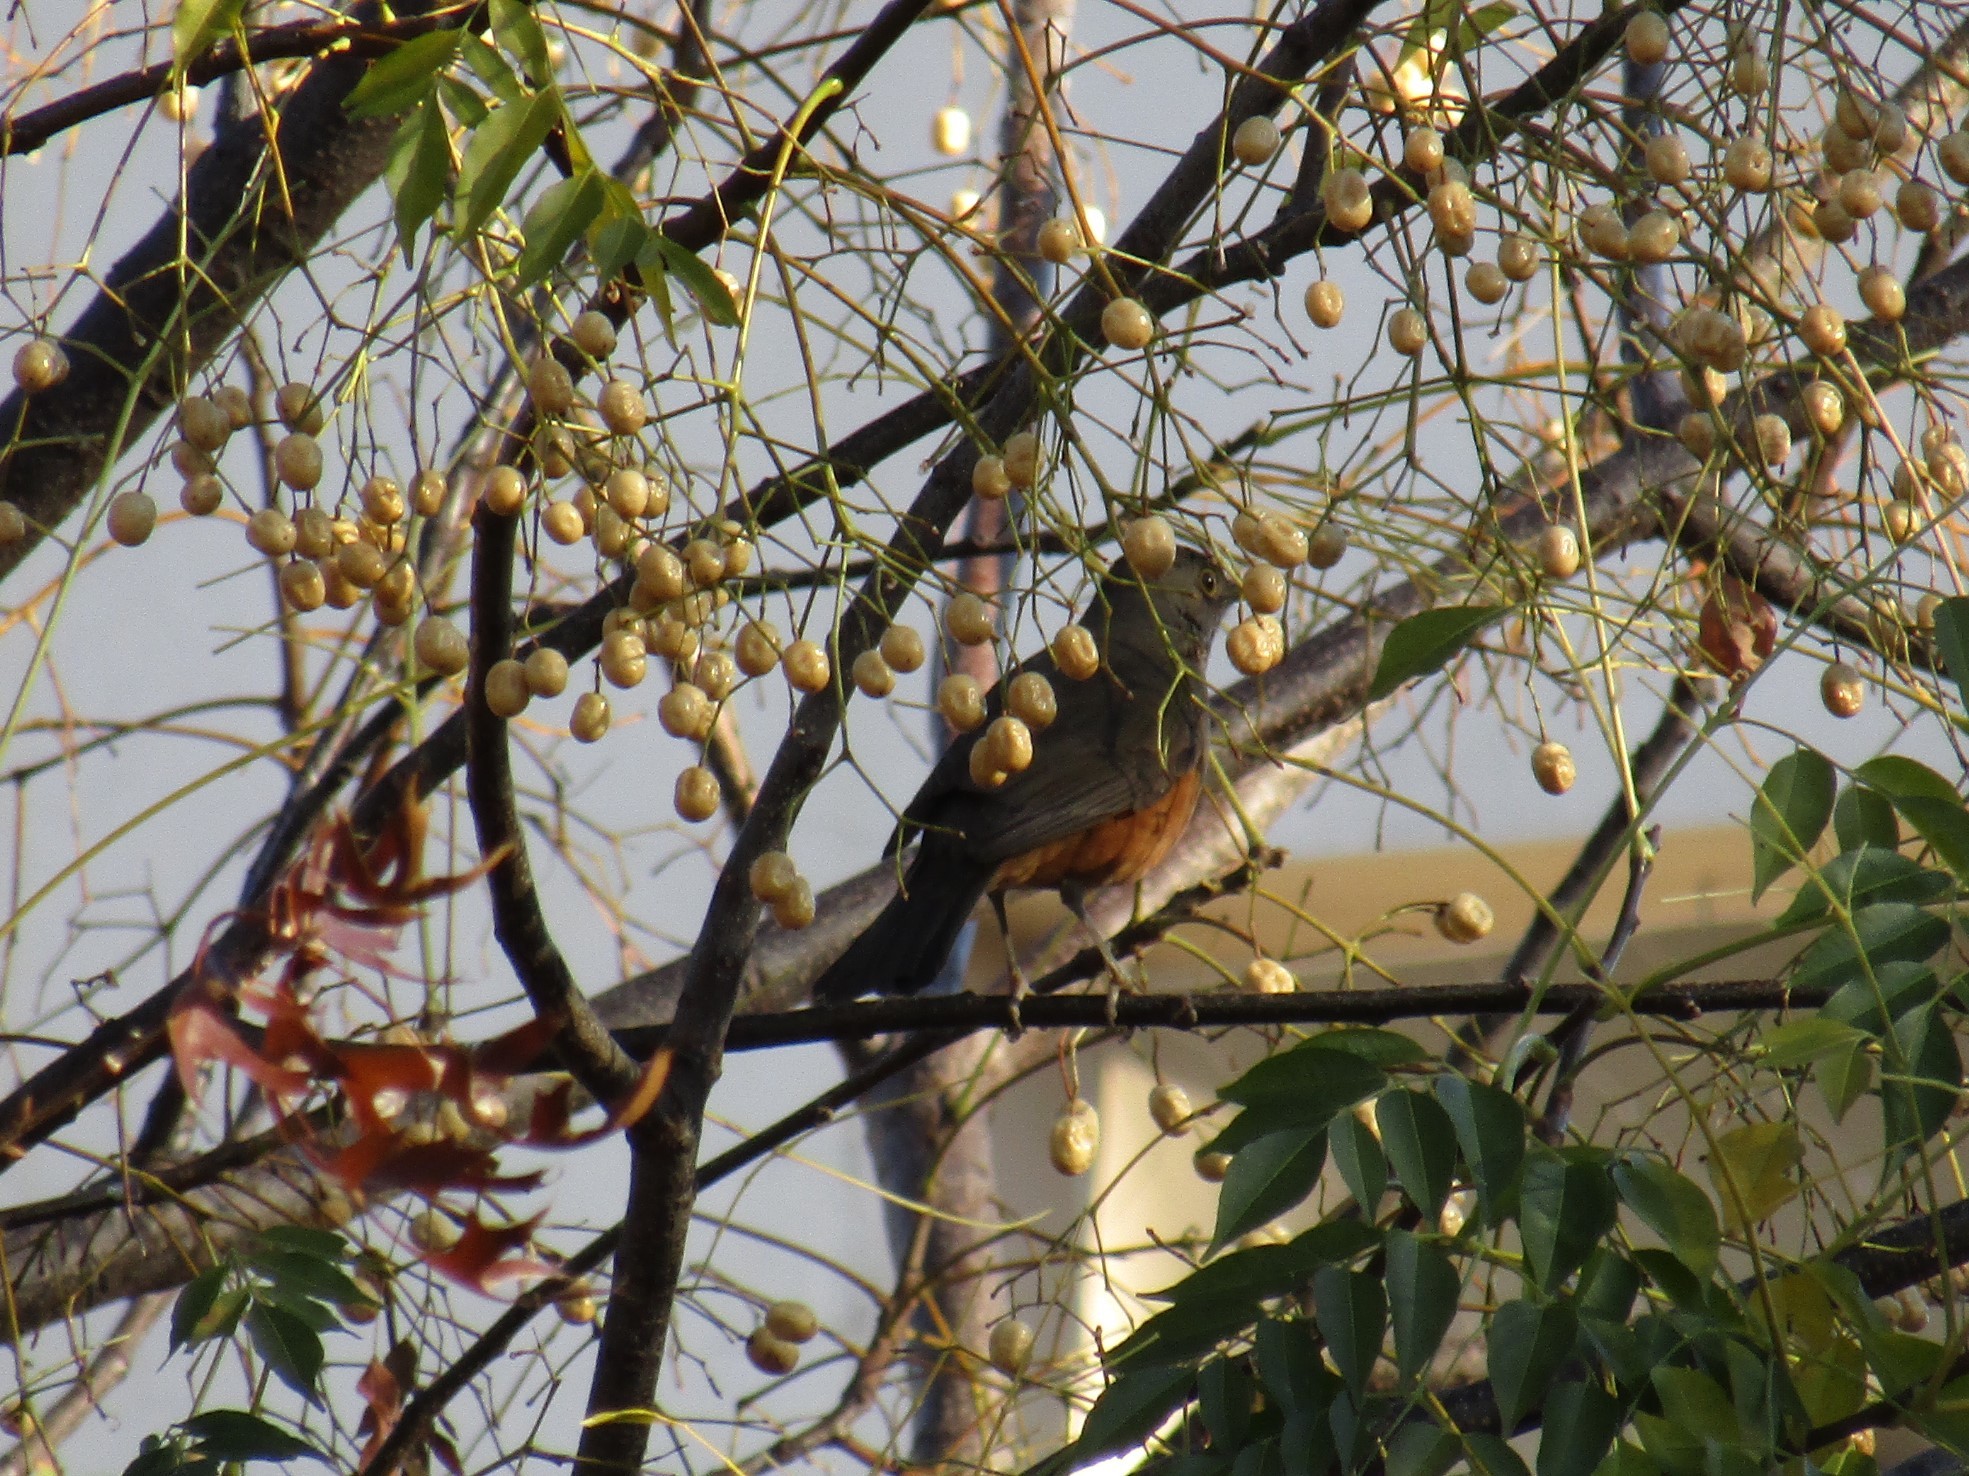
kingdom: Animalia
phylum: Chordata
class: Aves
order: Passeriformes
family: Turdidae
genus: Turdus
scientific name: Turdus rufiventris
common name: Rufous-bellied thrush
